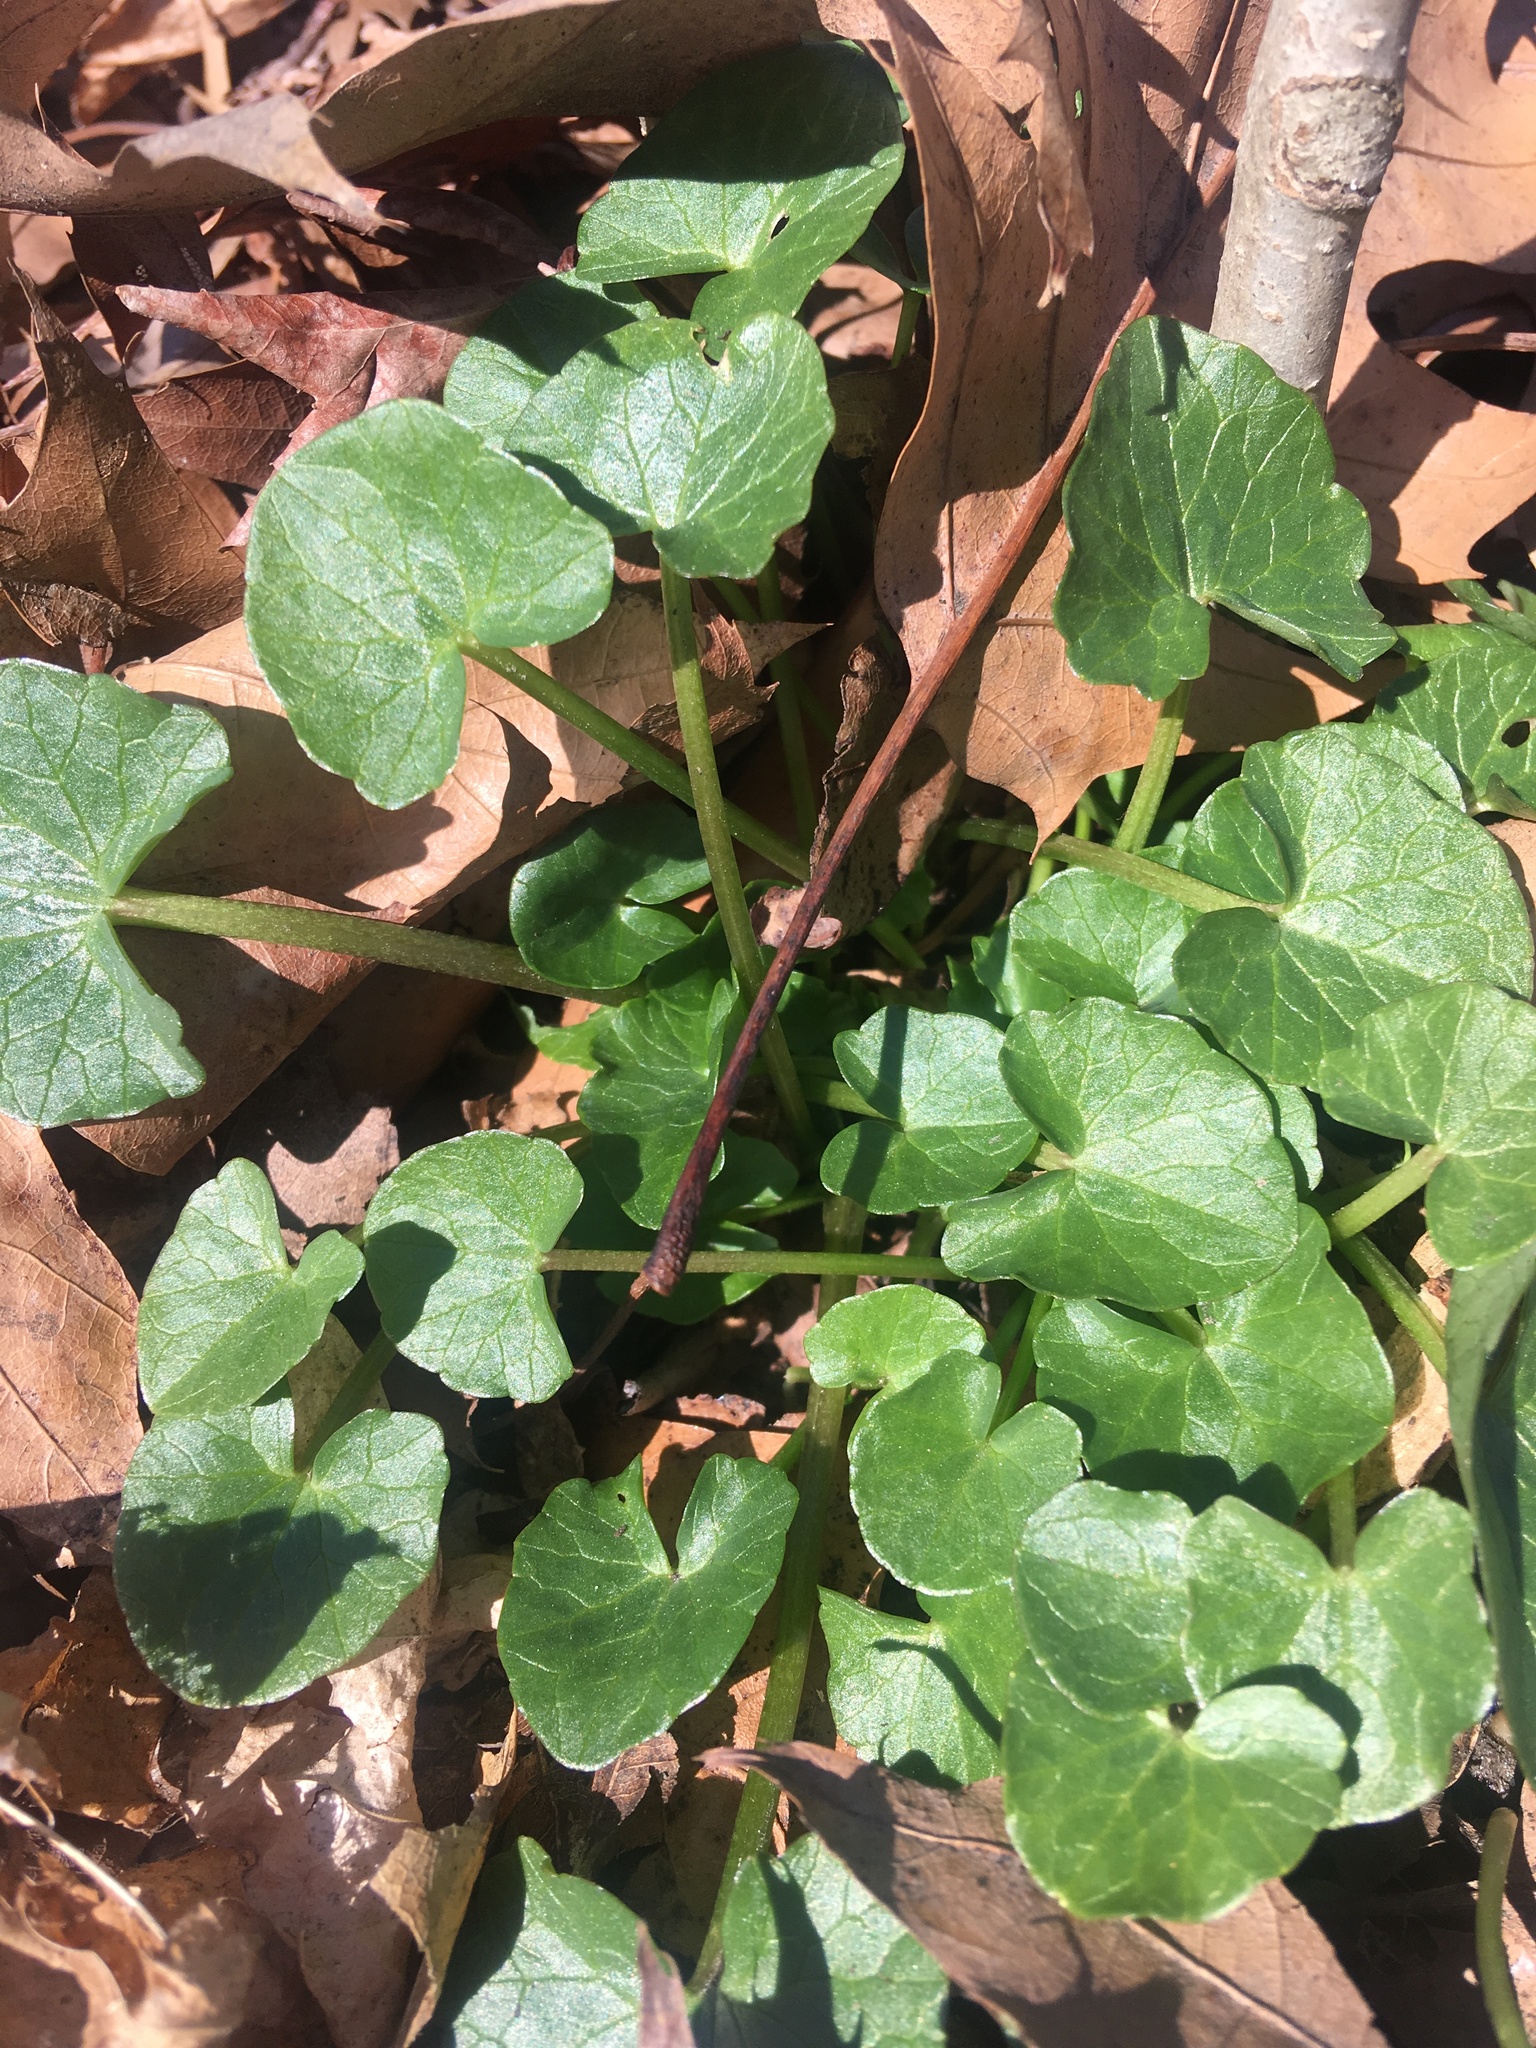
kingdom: Plantae
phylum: Tracheophyta
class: Magnoliopsida
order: Ranunculales
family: Ranunculaceae
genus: Ficaria
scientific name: Ficaria verna
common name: Lesser celandine
